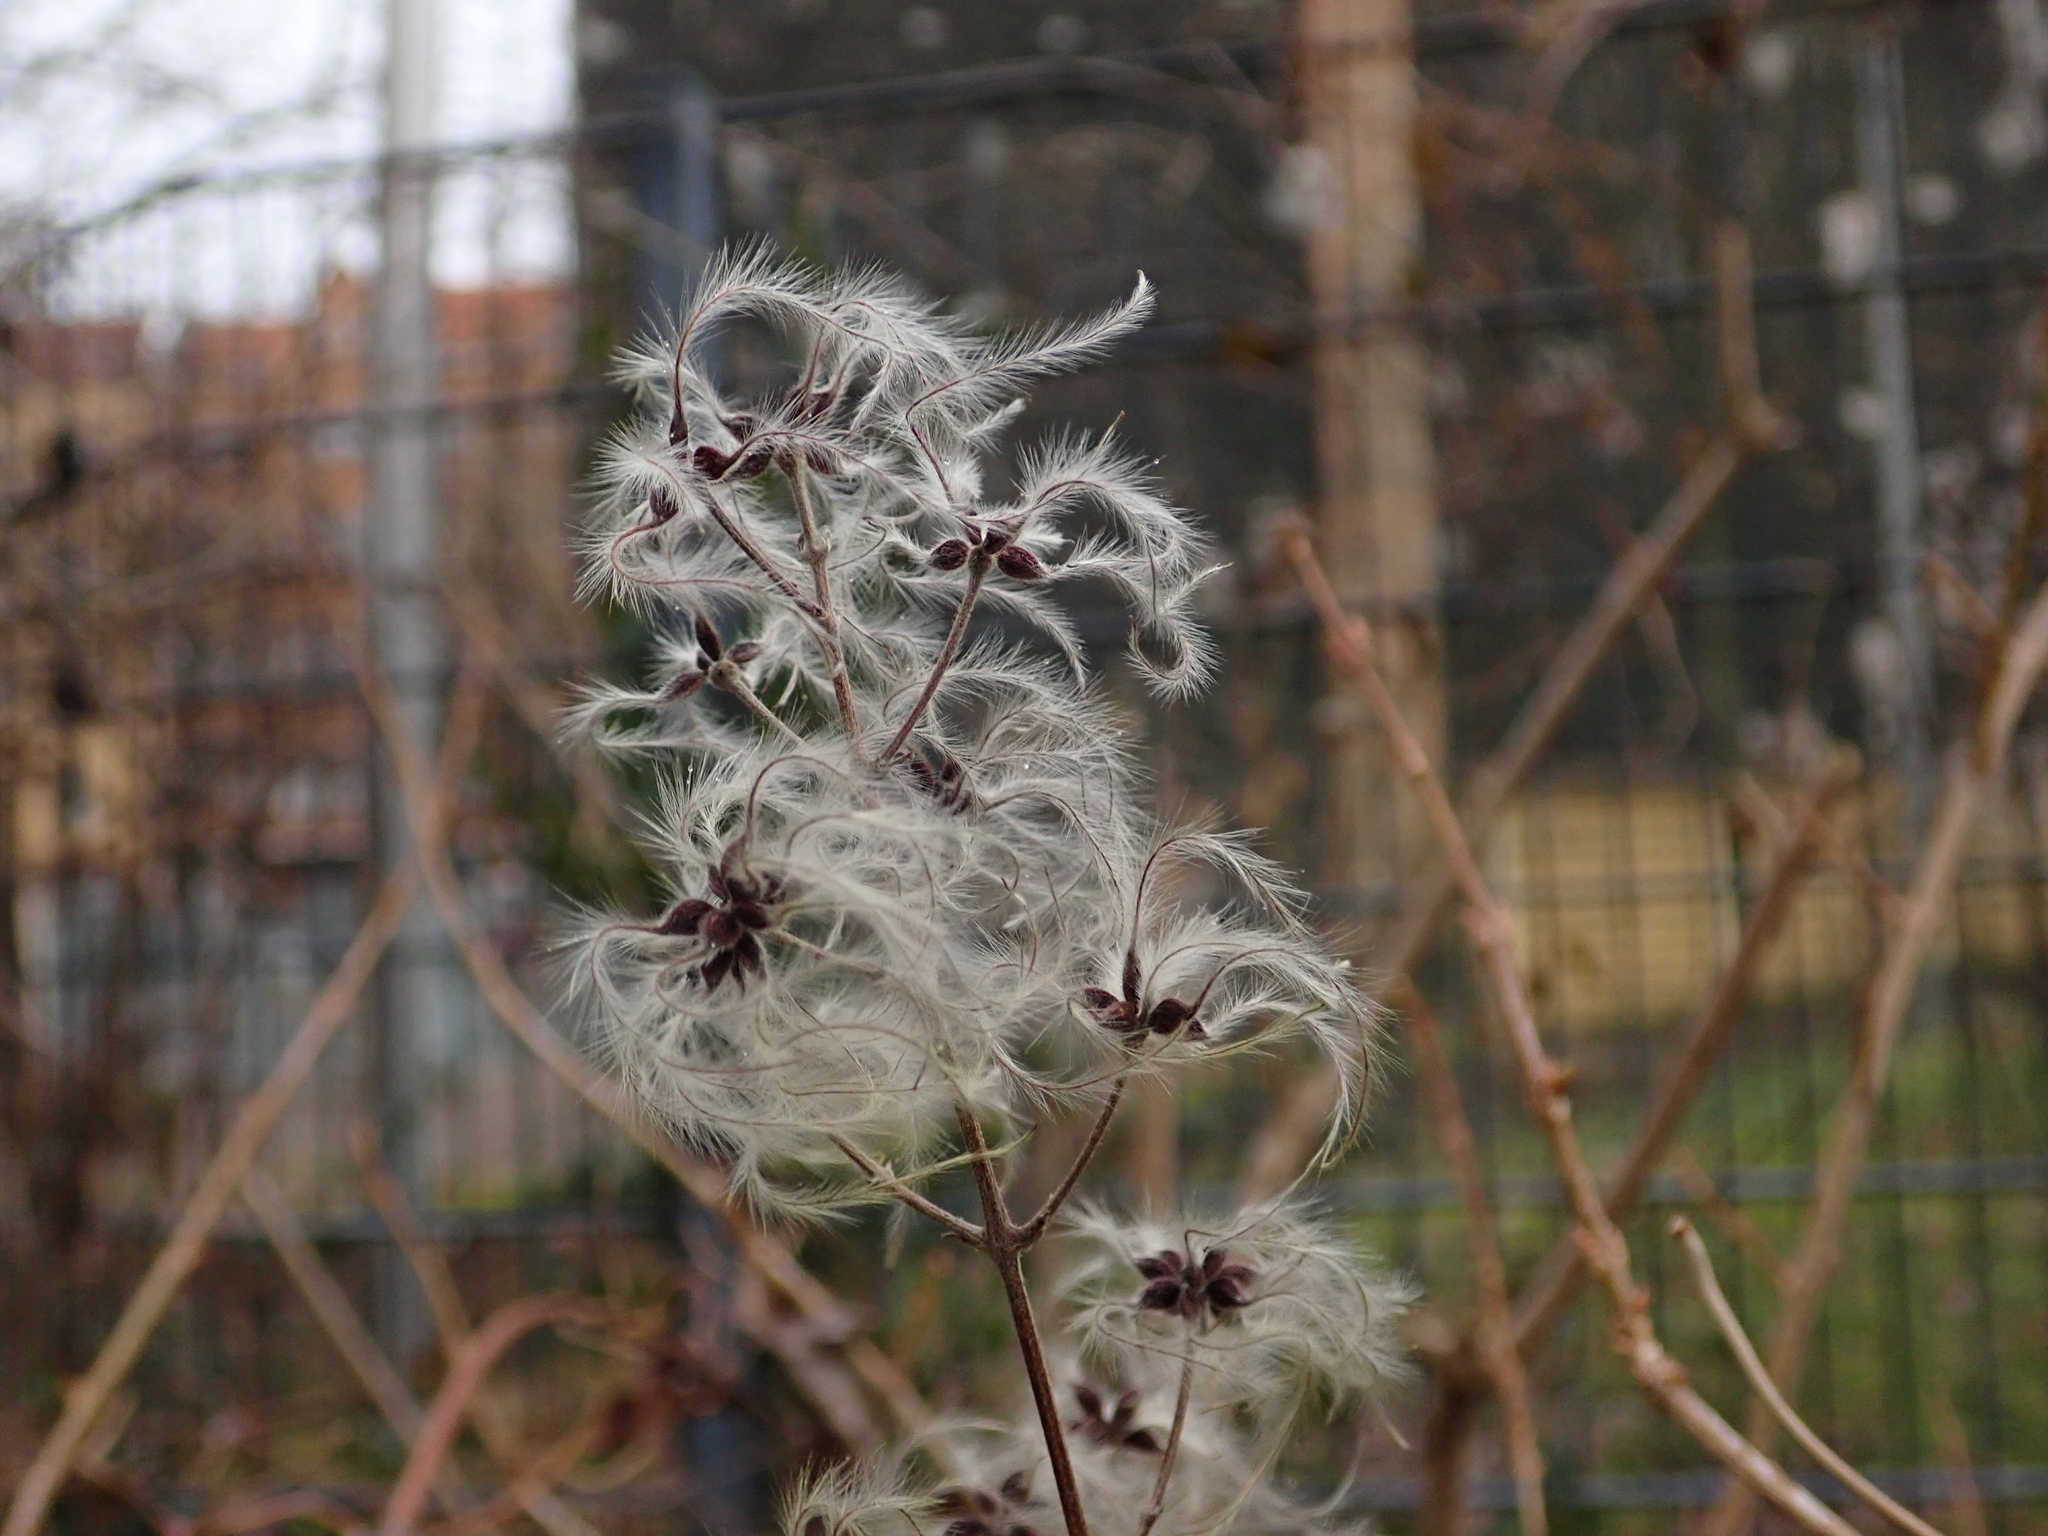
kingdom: Plantae
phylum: Tracheophyta
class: Magnoliopsida
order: Ranunculales
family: Ranunculaceae
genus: Clematis
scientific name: Clematis vitalba
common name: Evergreen clematis
